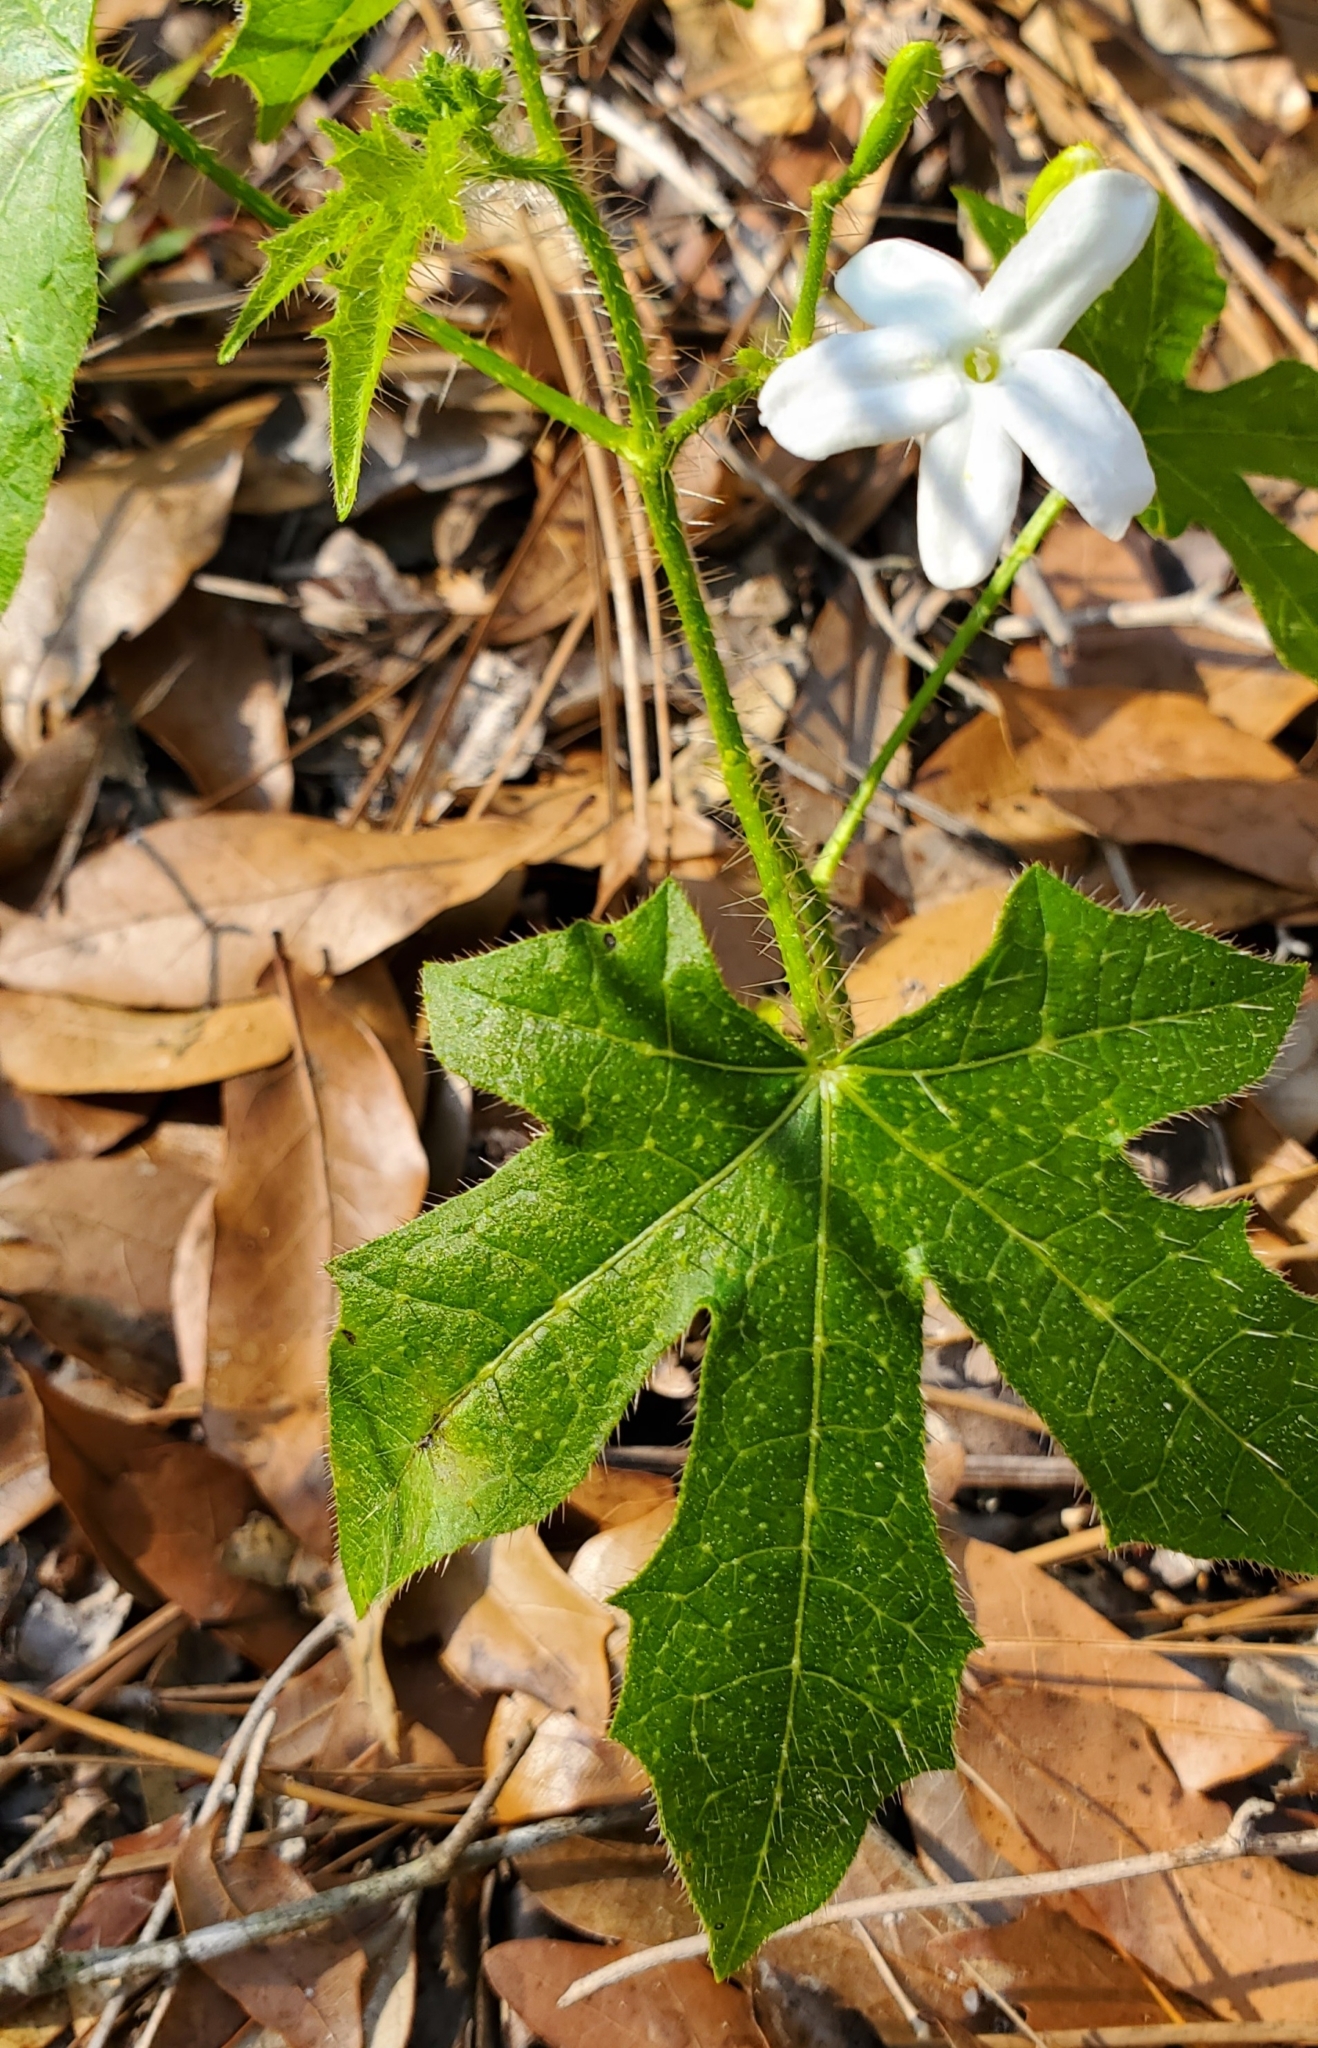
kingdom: Plantae
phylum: Tracheophyta
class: Magnoliopsida
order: Malpighiales
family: Euphorbiaceae
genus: Cnidoscolus
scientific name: Cnidoscolus stimulosus
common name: Bull-nettle
